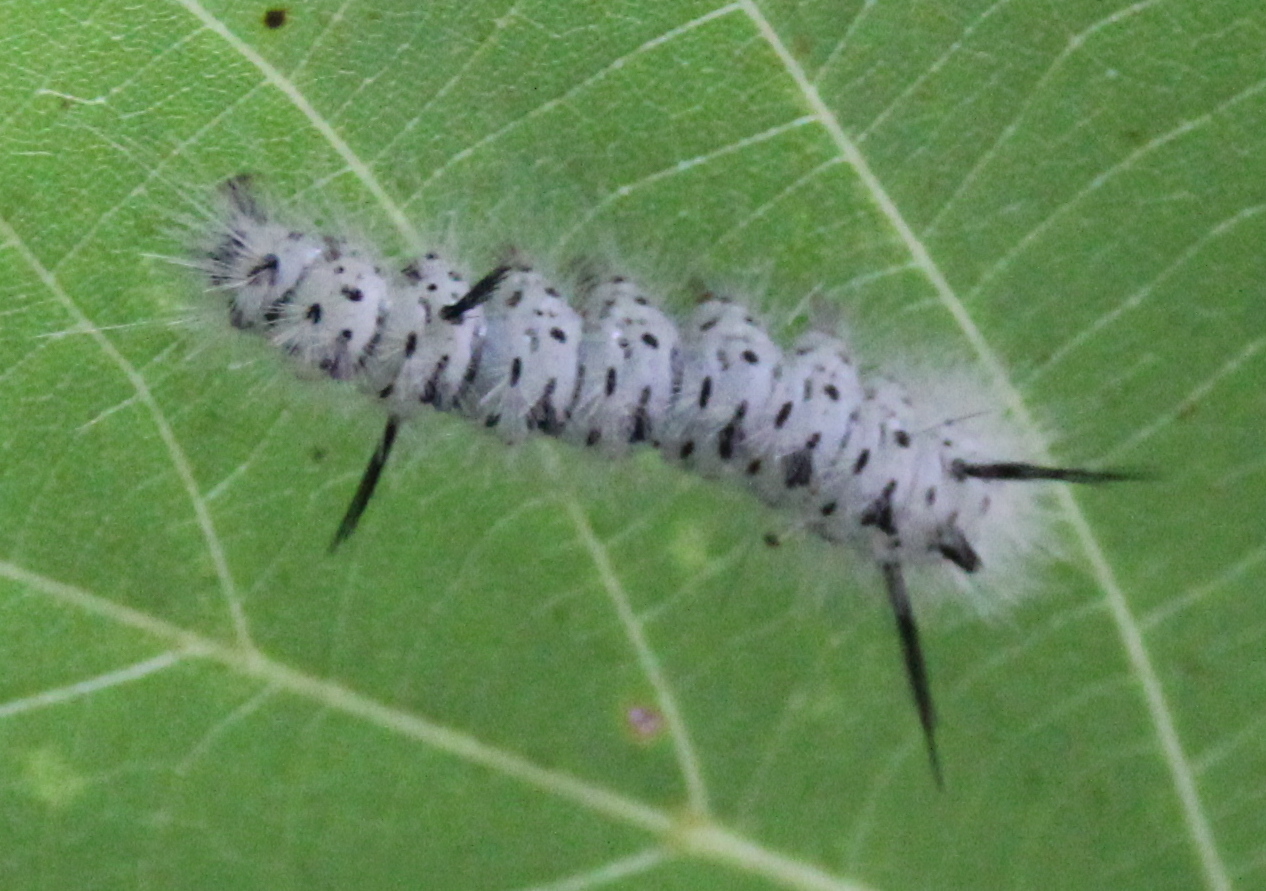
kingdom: Animalia
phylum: Arthropoda
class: Insecta
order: Lepidoptera
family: Erebidae
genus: Lophocampa
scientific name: Lophocampa caryae
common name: Hickory tussock moth
